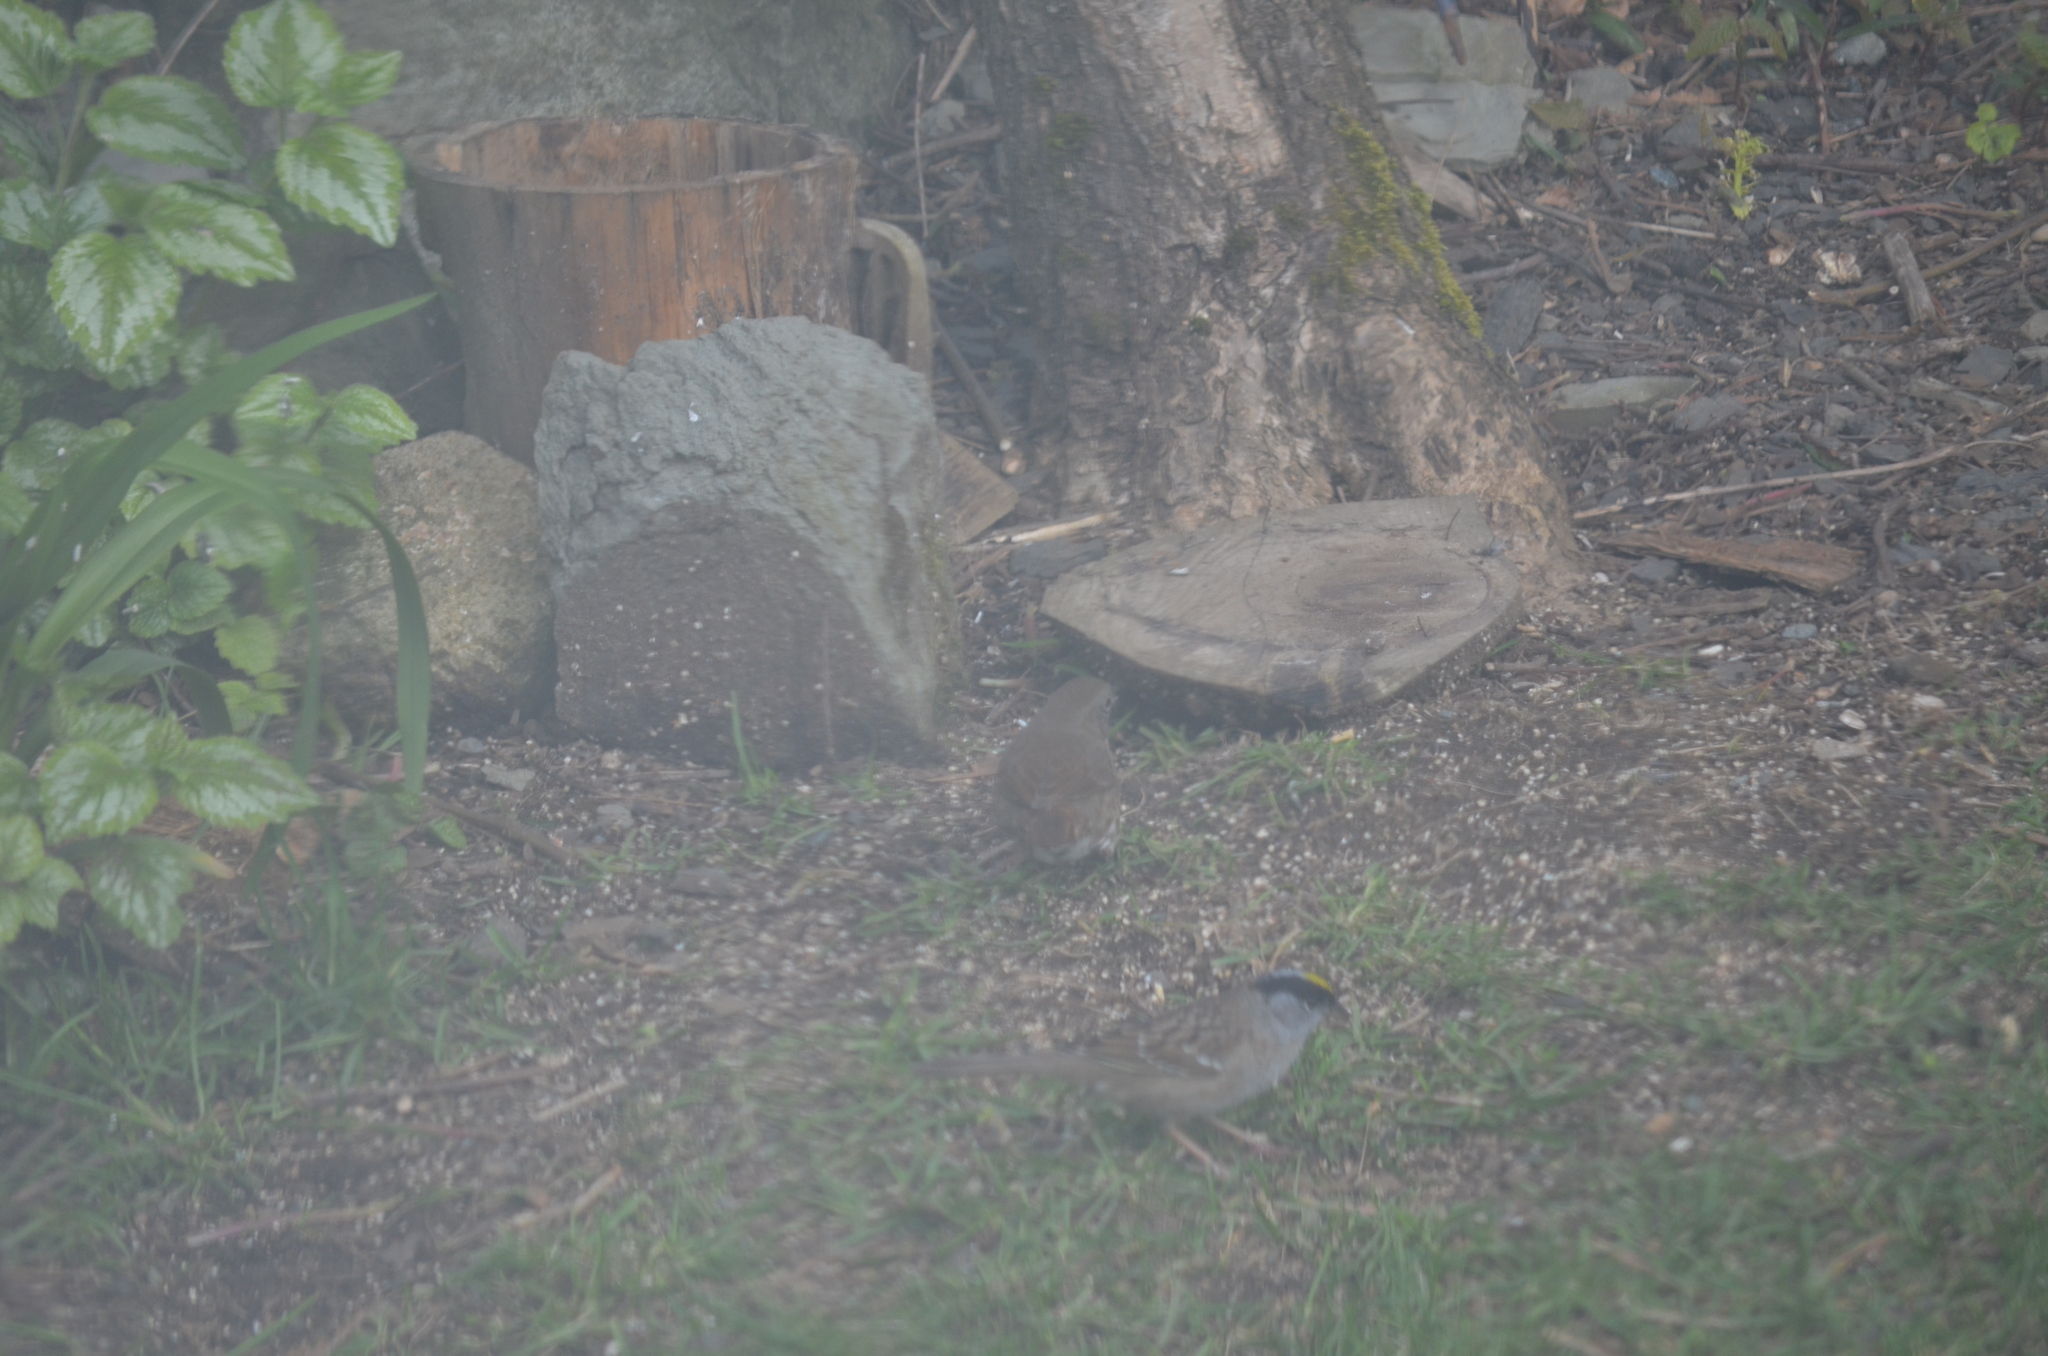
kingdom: Animalia
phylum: Chordata
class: Aves
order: Passeriformes
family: Passerellidae
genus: Passerella
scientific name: Passerella iliaca
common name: Fox sparrow
